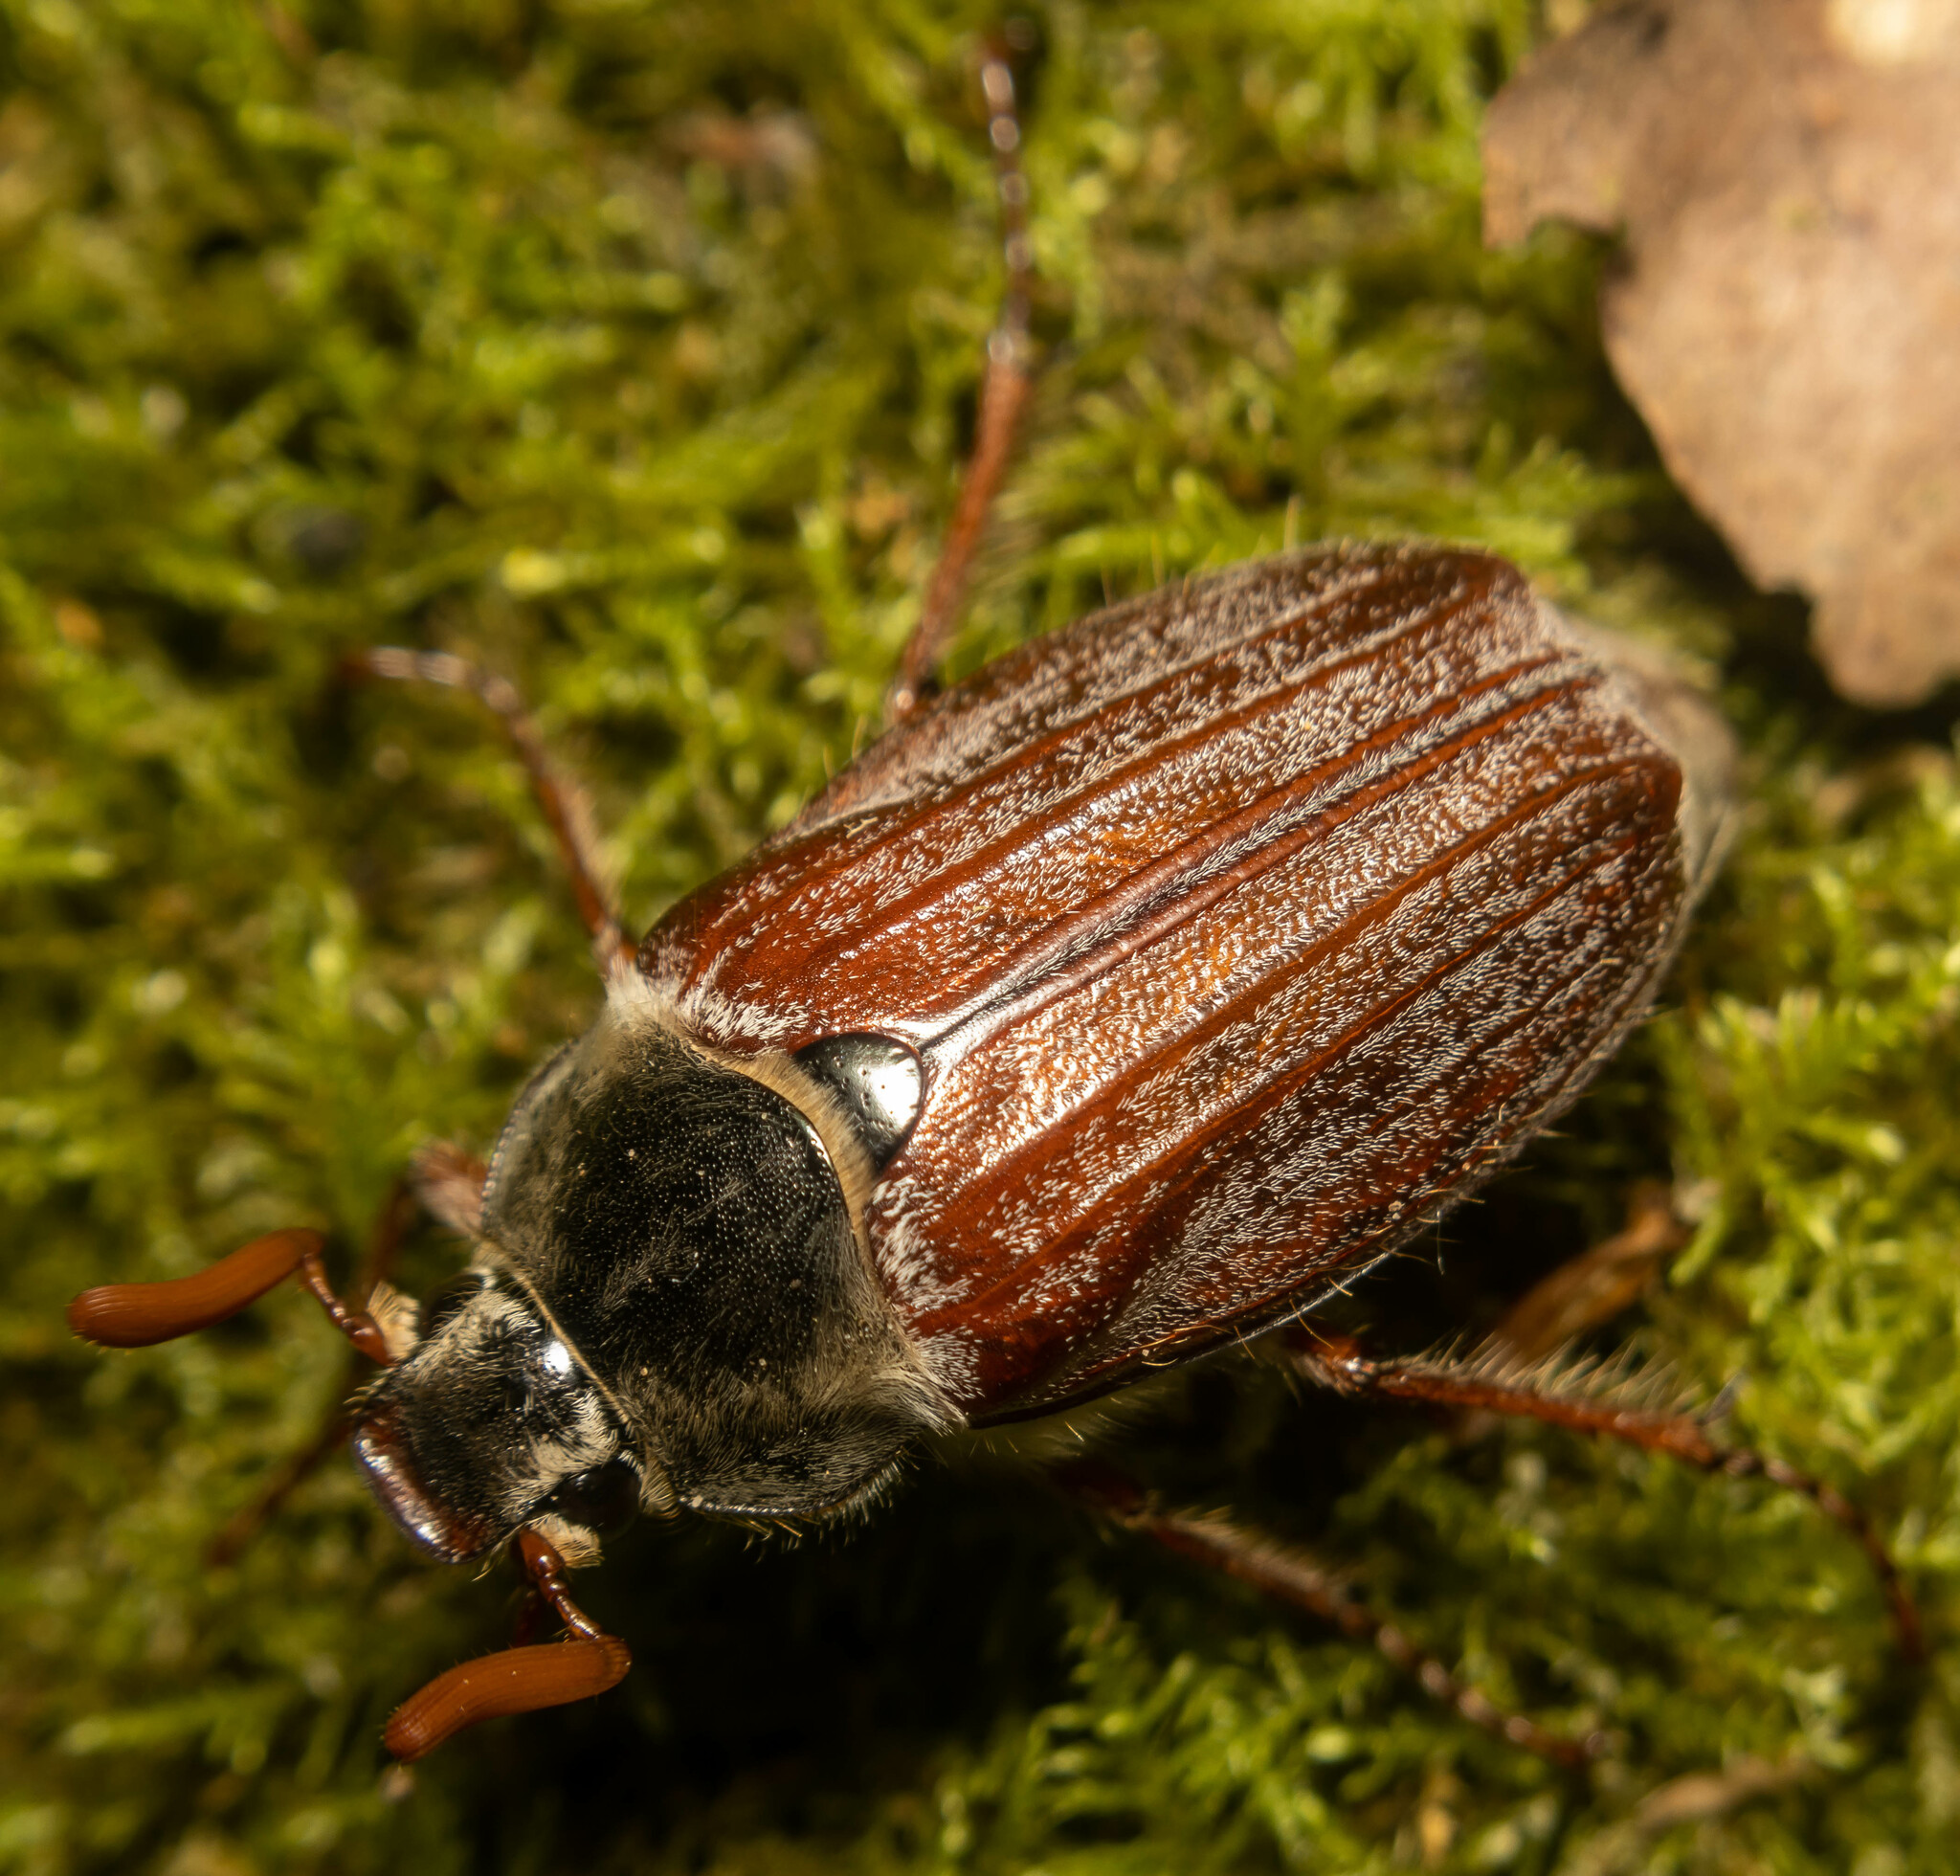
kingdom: Animalia
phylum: Arthropoda
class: Insecta
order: Coleoptera
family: Scarabaeidae
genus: Melolontha
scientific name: Melolontha melolontha
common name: Cockchafer maybeetle
